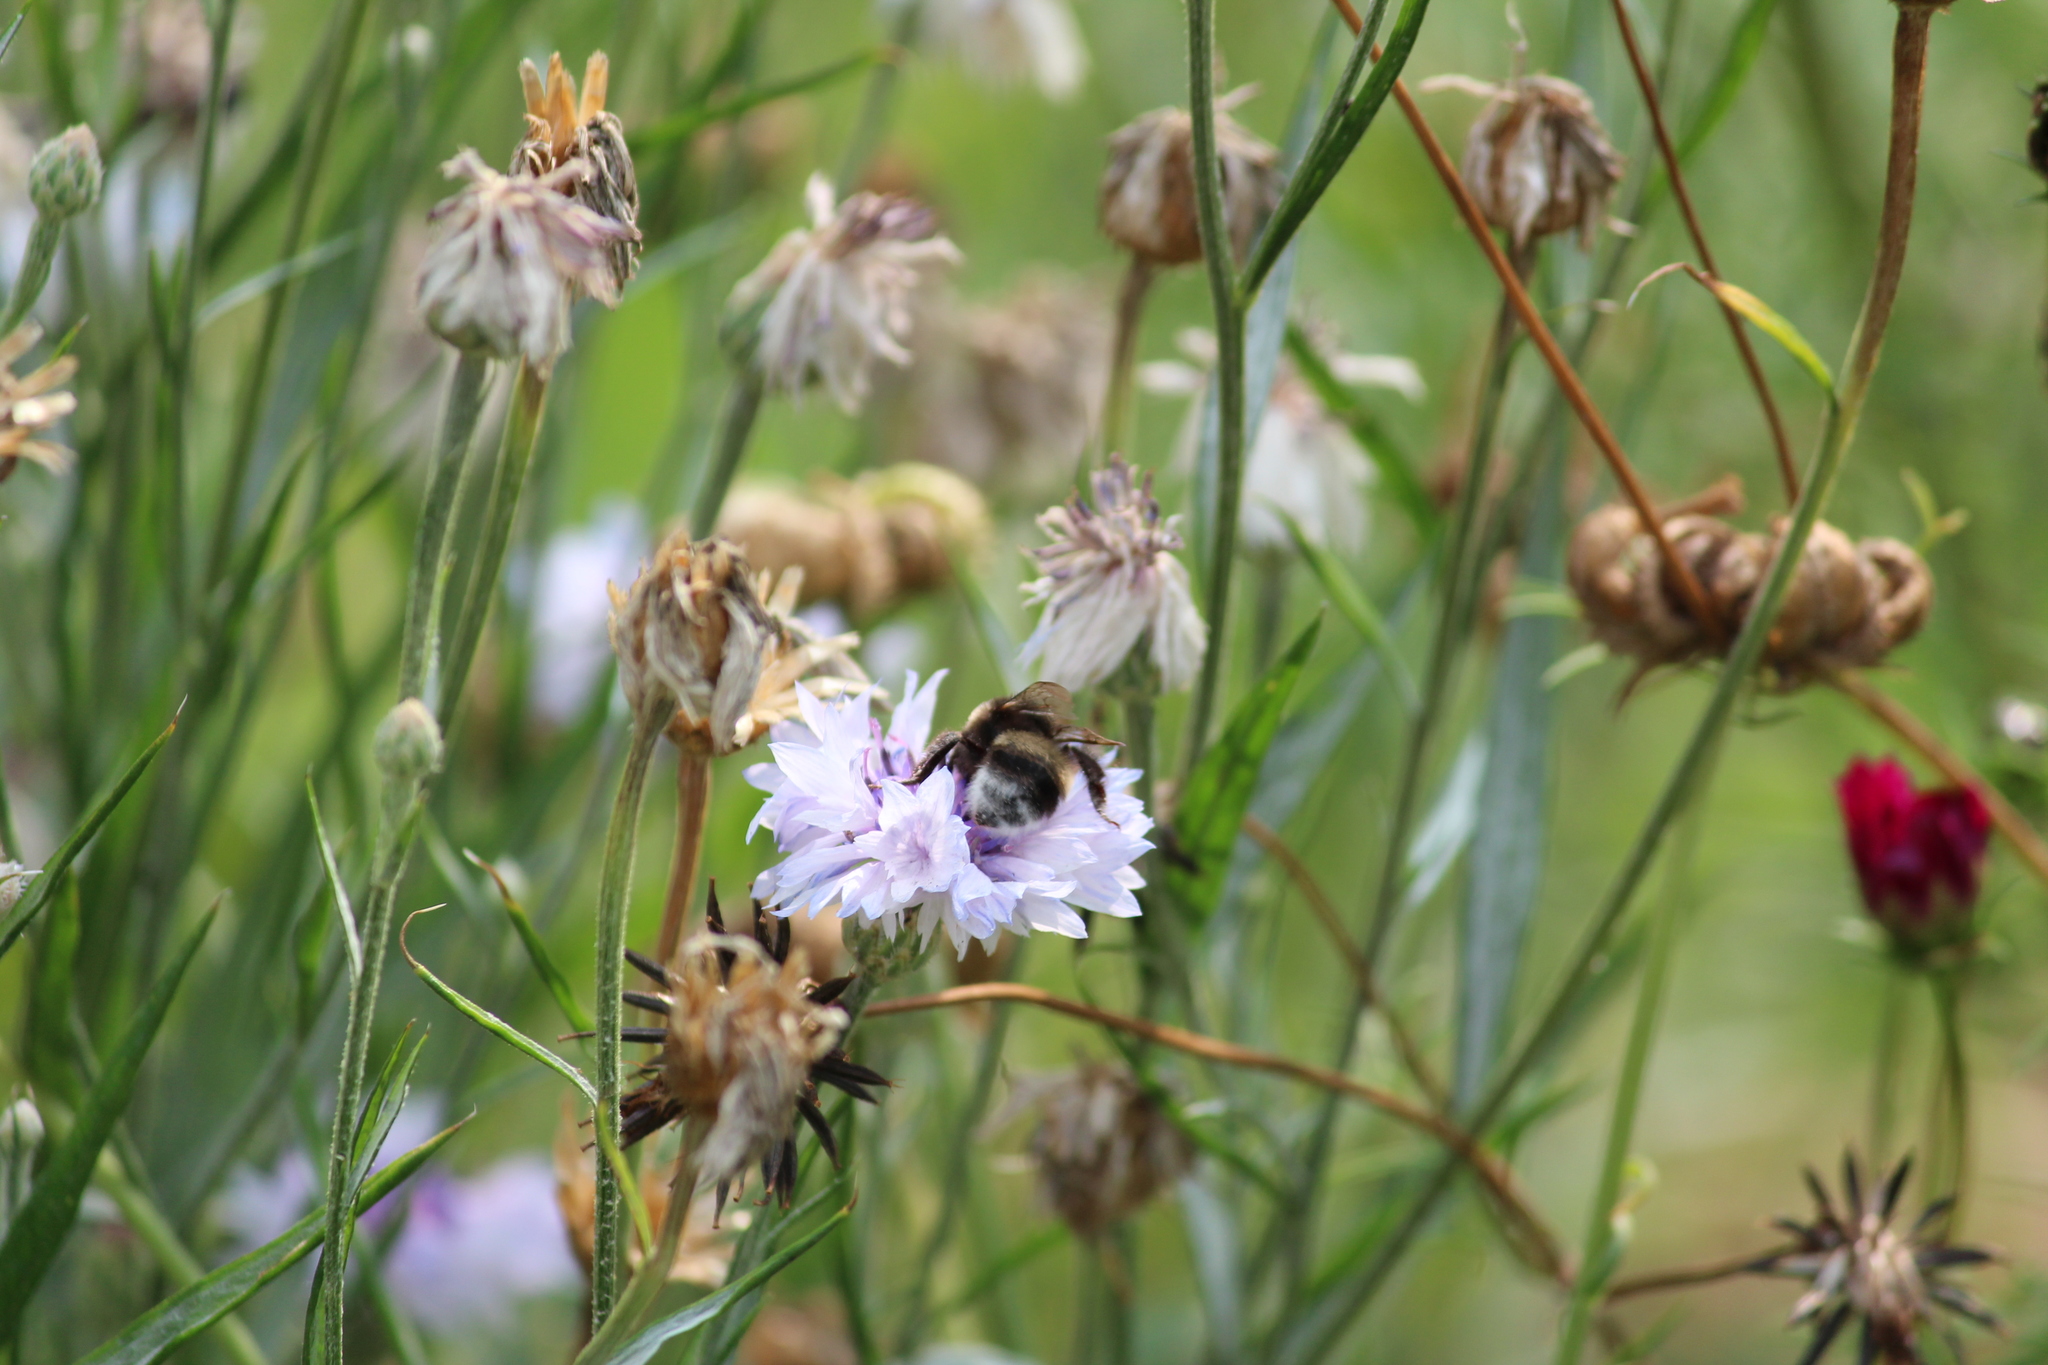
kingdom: Animalia
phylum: Arthropoda
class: Insecta
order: Hymenoptera
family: Apidae
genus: Bombus
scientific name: Bombus
